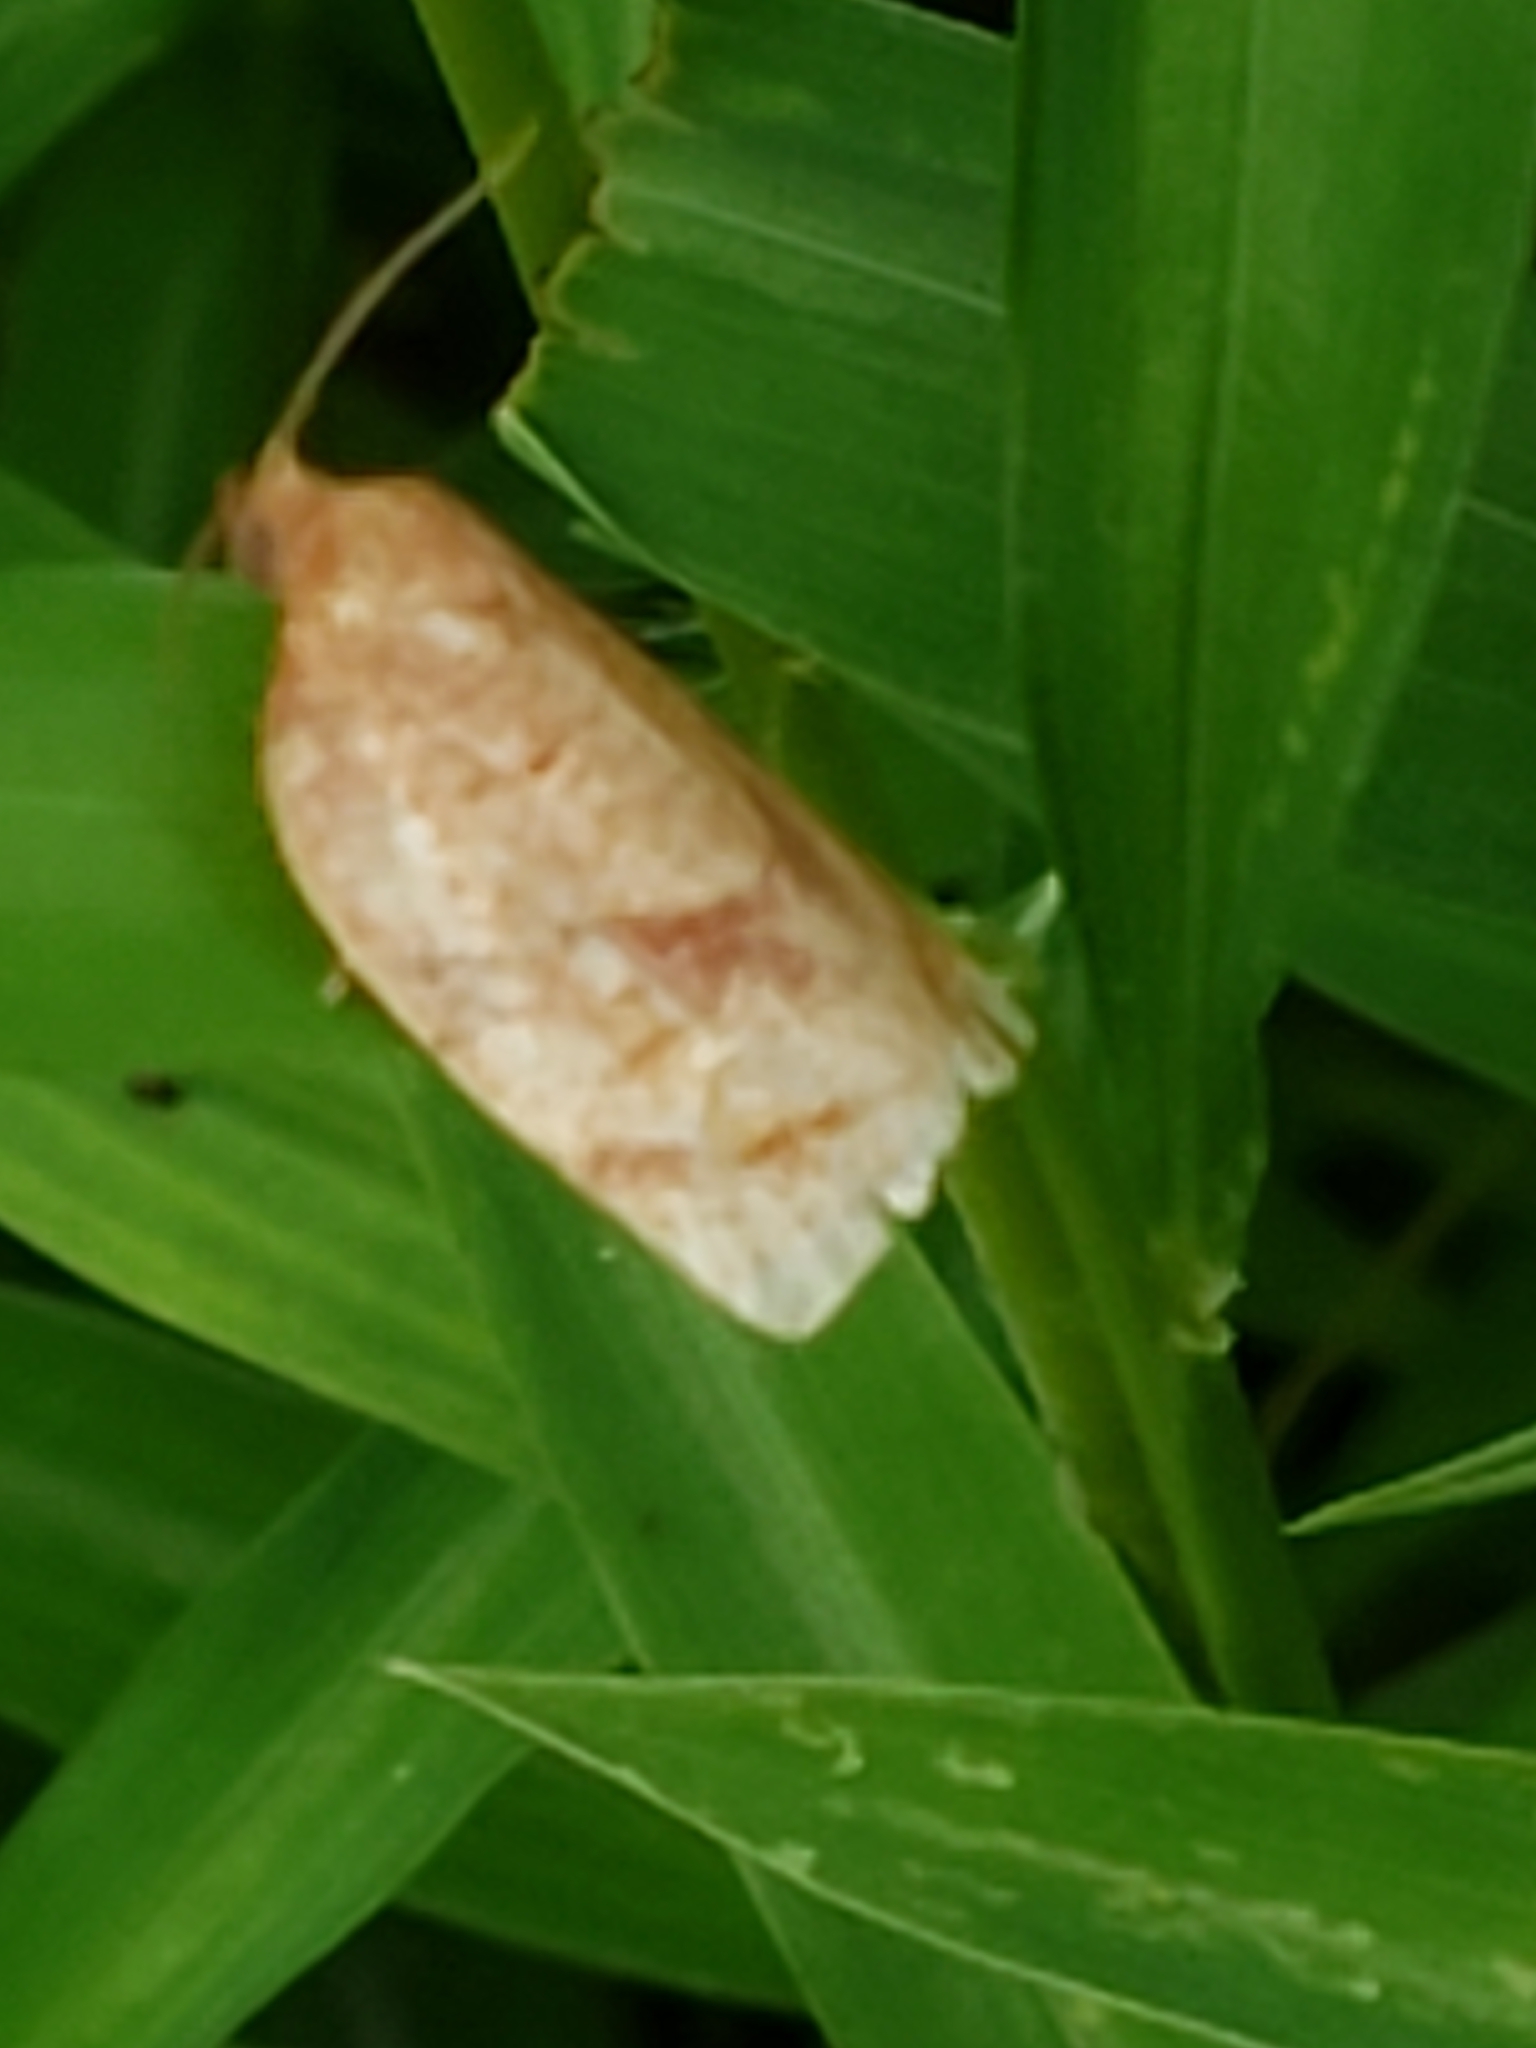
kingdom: Animalia
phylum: Arthropoda
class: Insecta
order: Lepidoptera
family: Tortricidae
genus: Choristoneura
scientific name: Choristoneura parallela
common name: Parallel-banded leafroller moth
